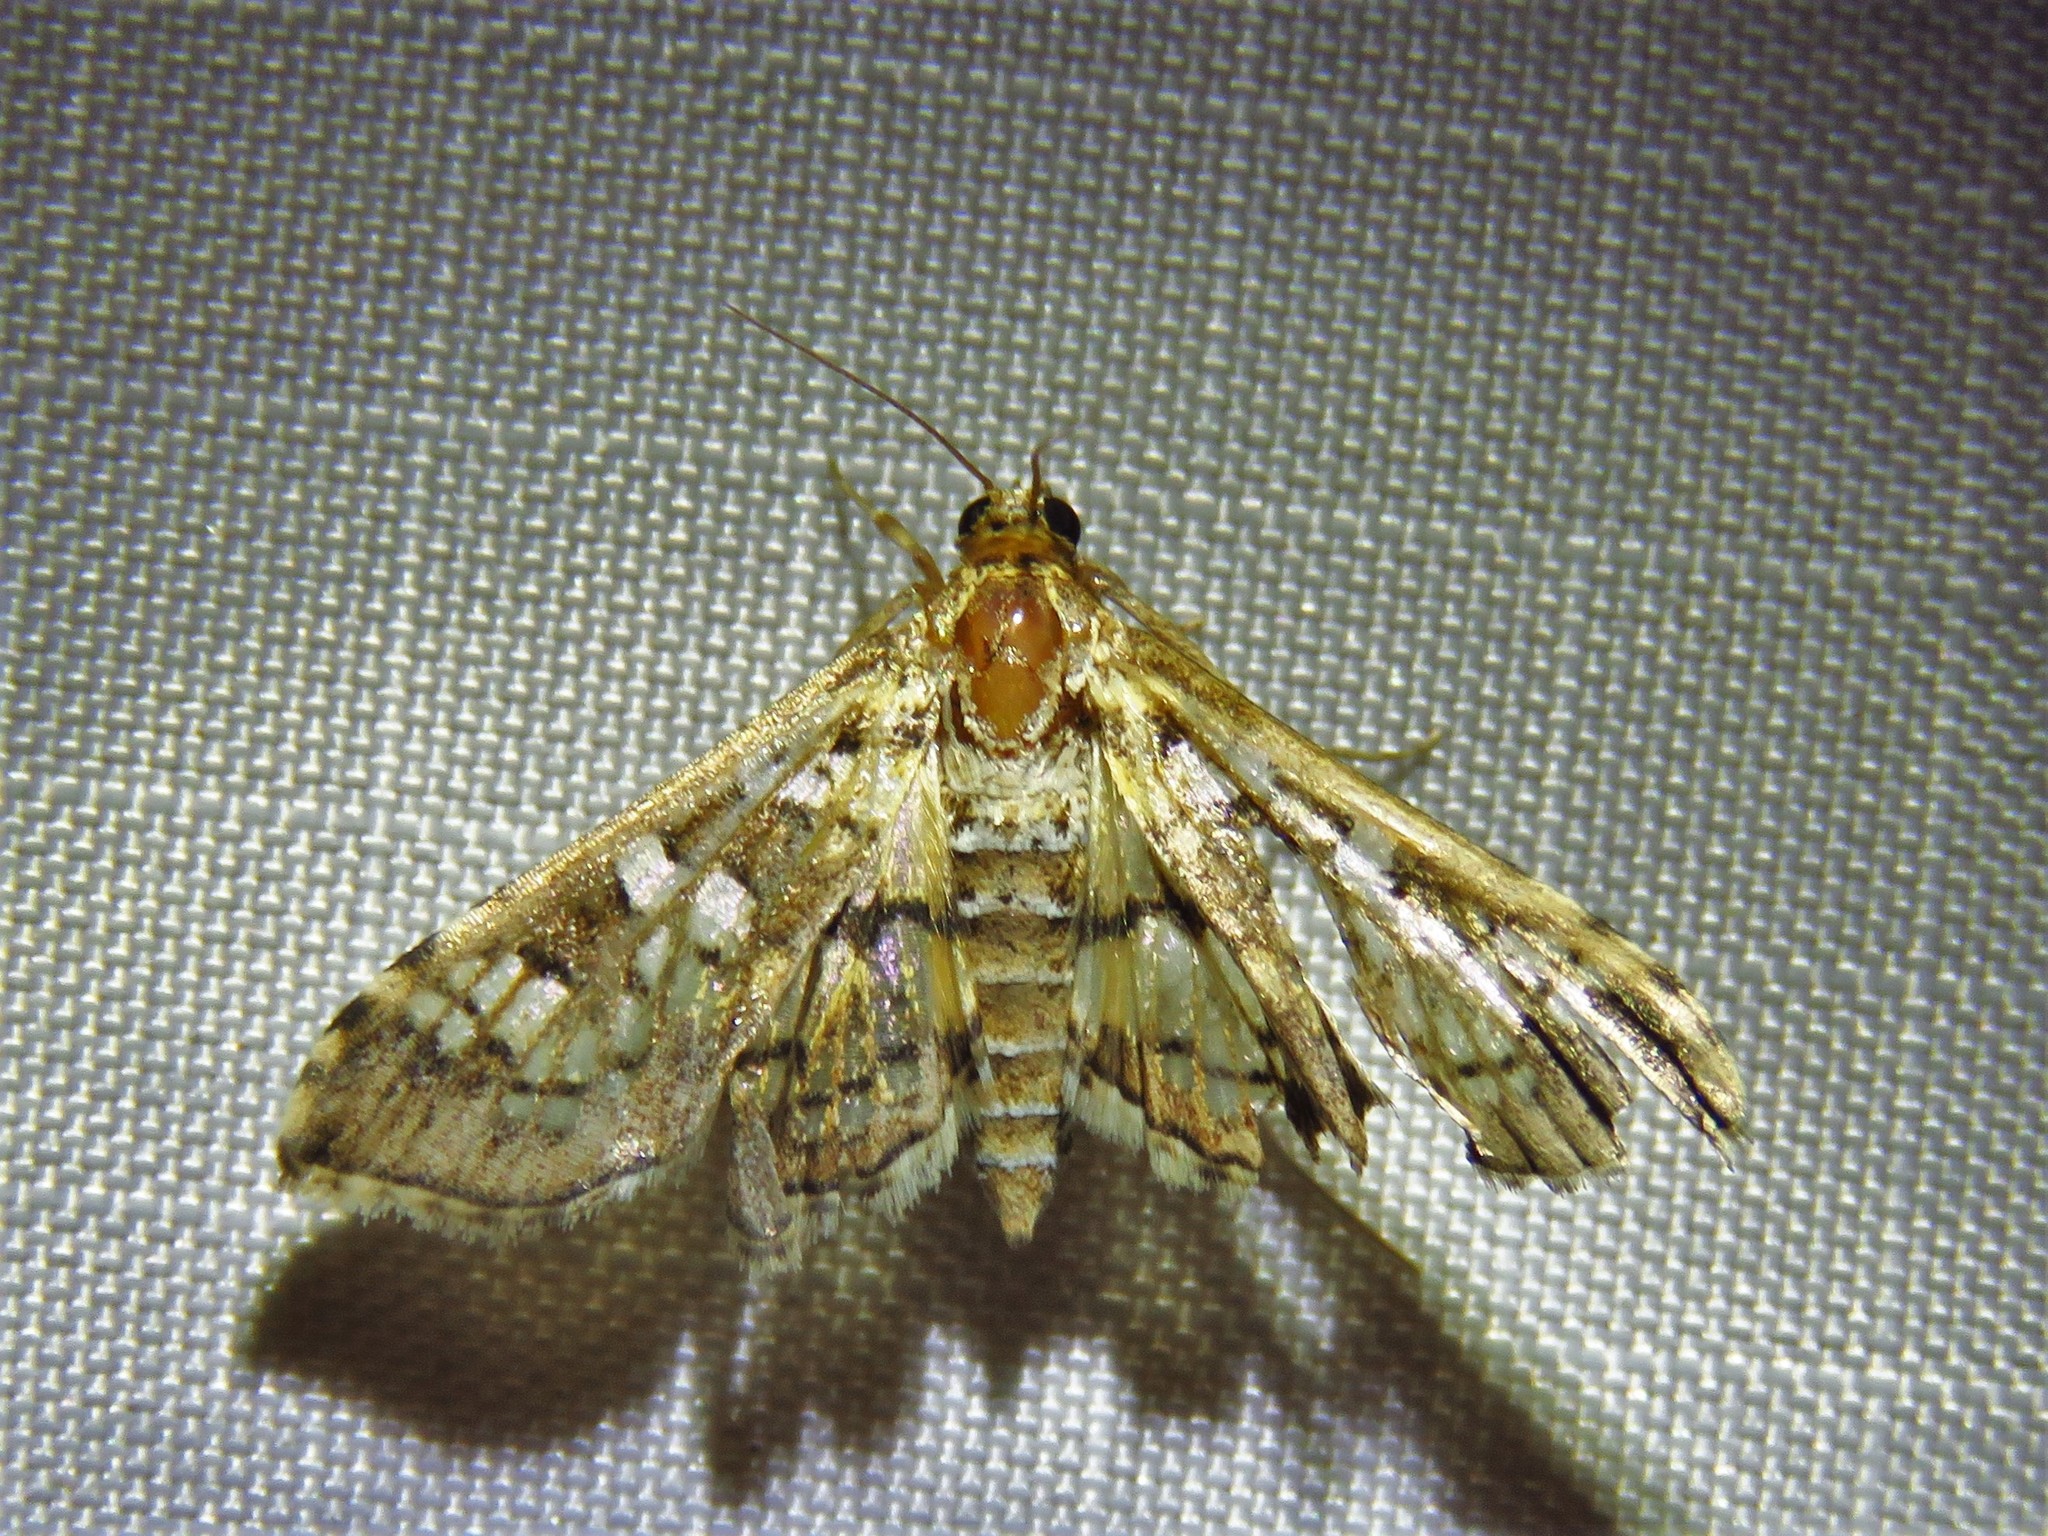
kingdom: Animalia
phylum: Arthropoda
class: Insecta
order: Lepidoptera
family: Crambidae
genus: Samea
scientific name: Samea ecclesialis
